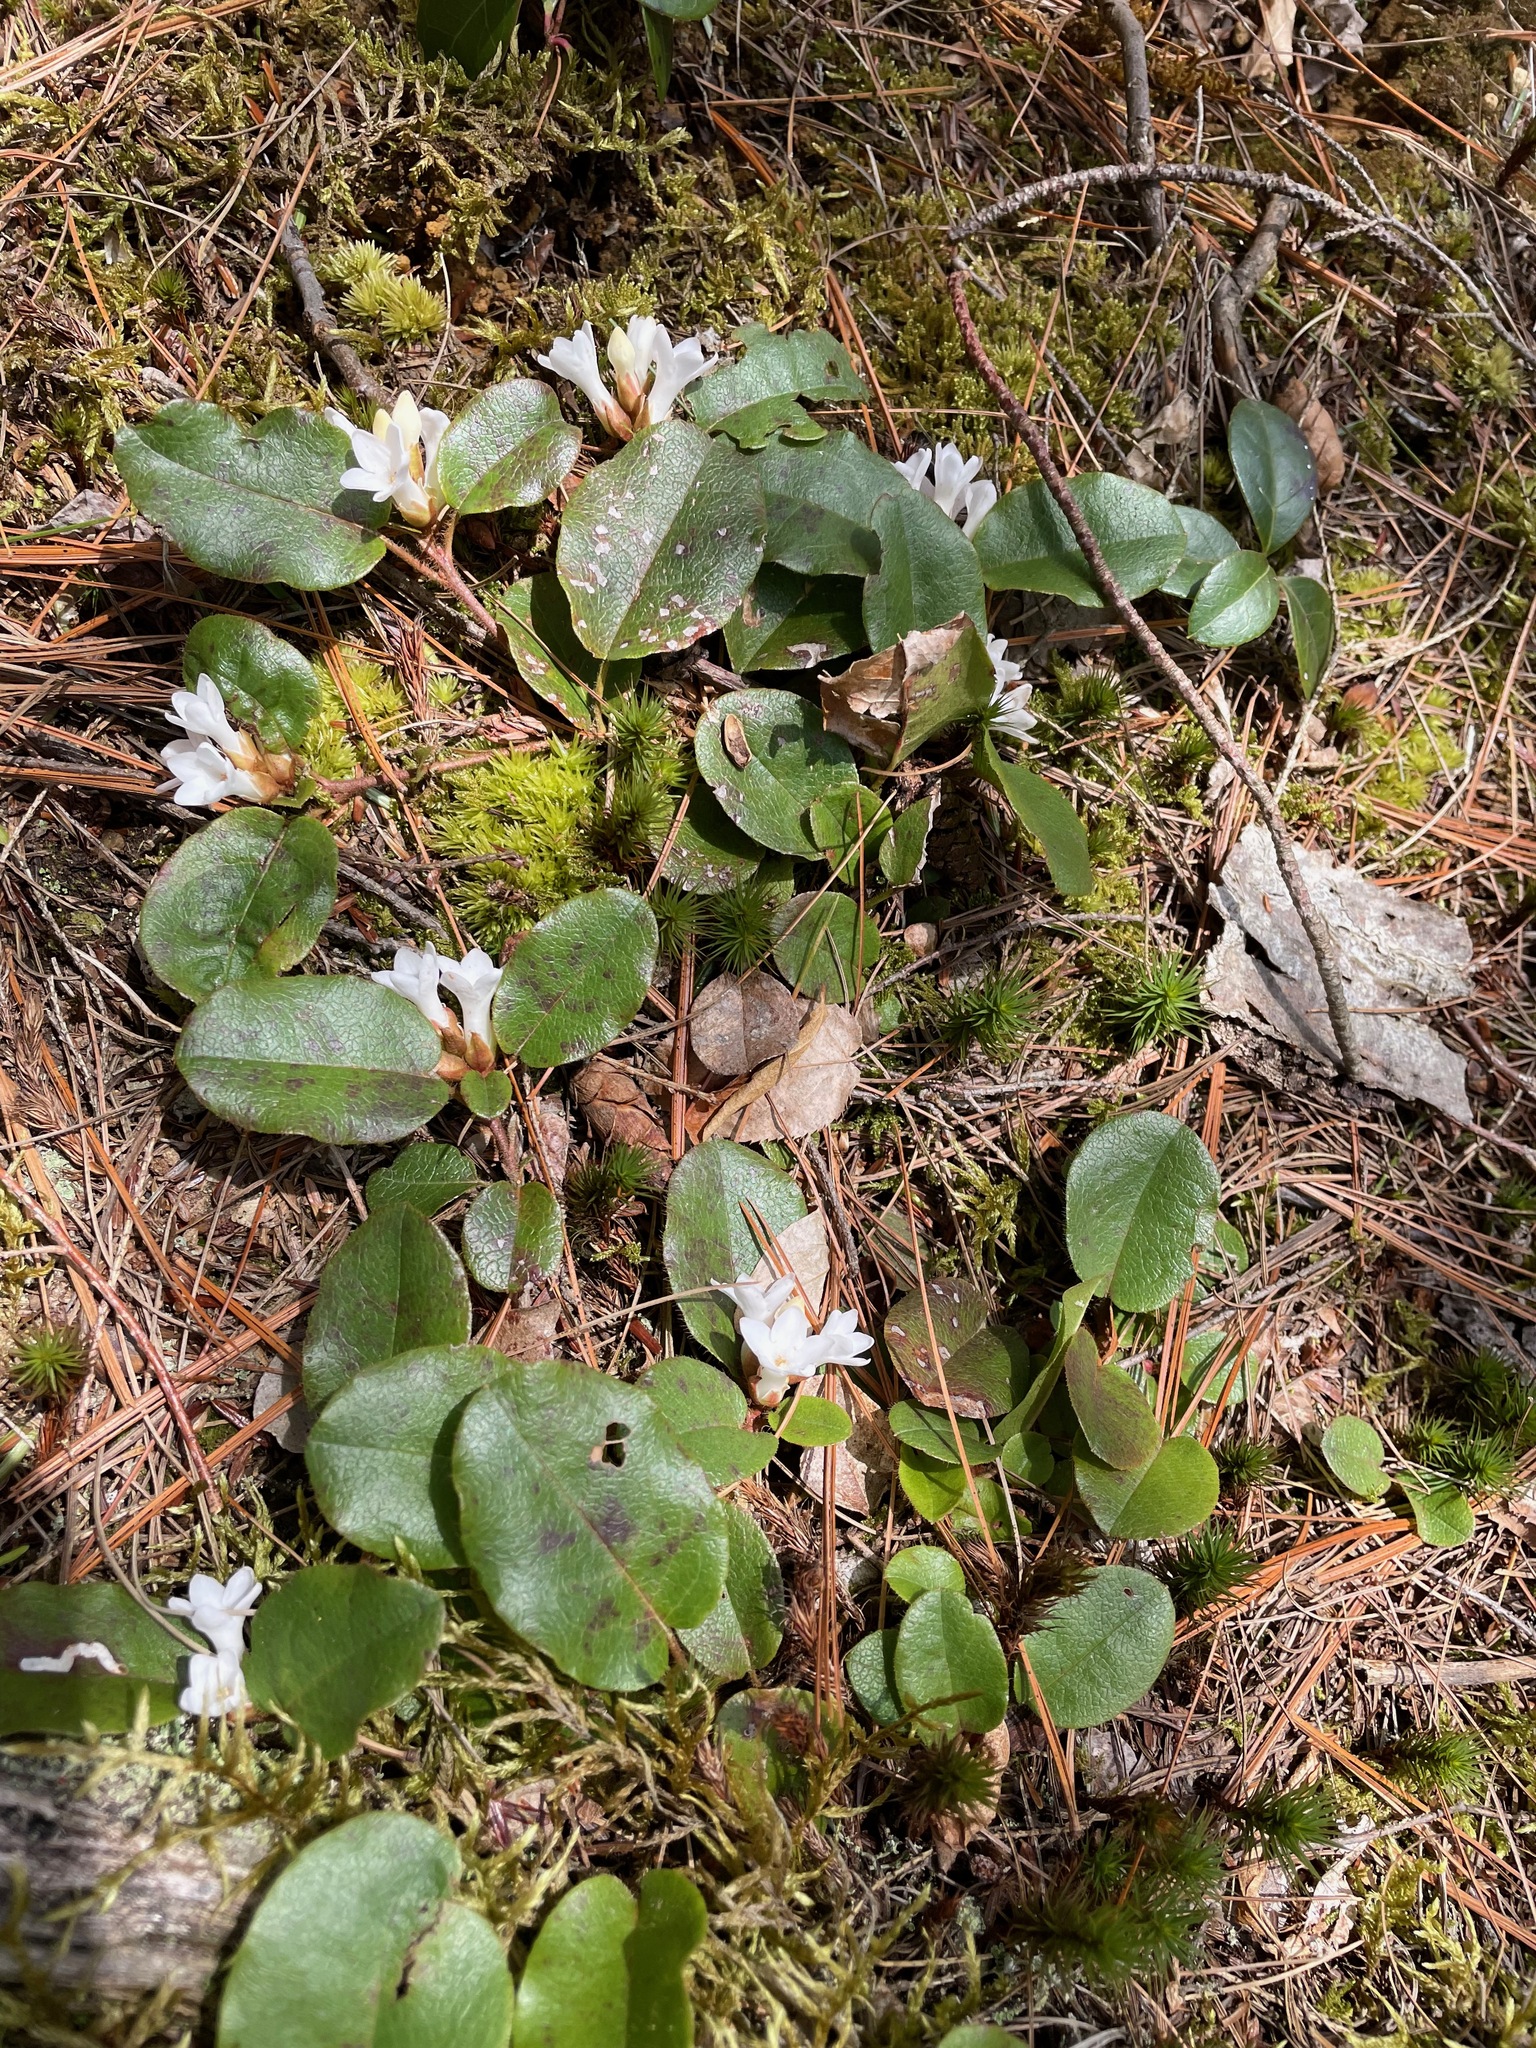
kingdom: Plantae
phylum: Tracheophyta
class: Magnoliopsida
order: Ericales
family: Ericaceae
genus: Epigaea
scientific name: Epigaea repens
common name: Gravelroot
